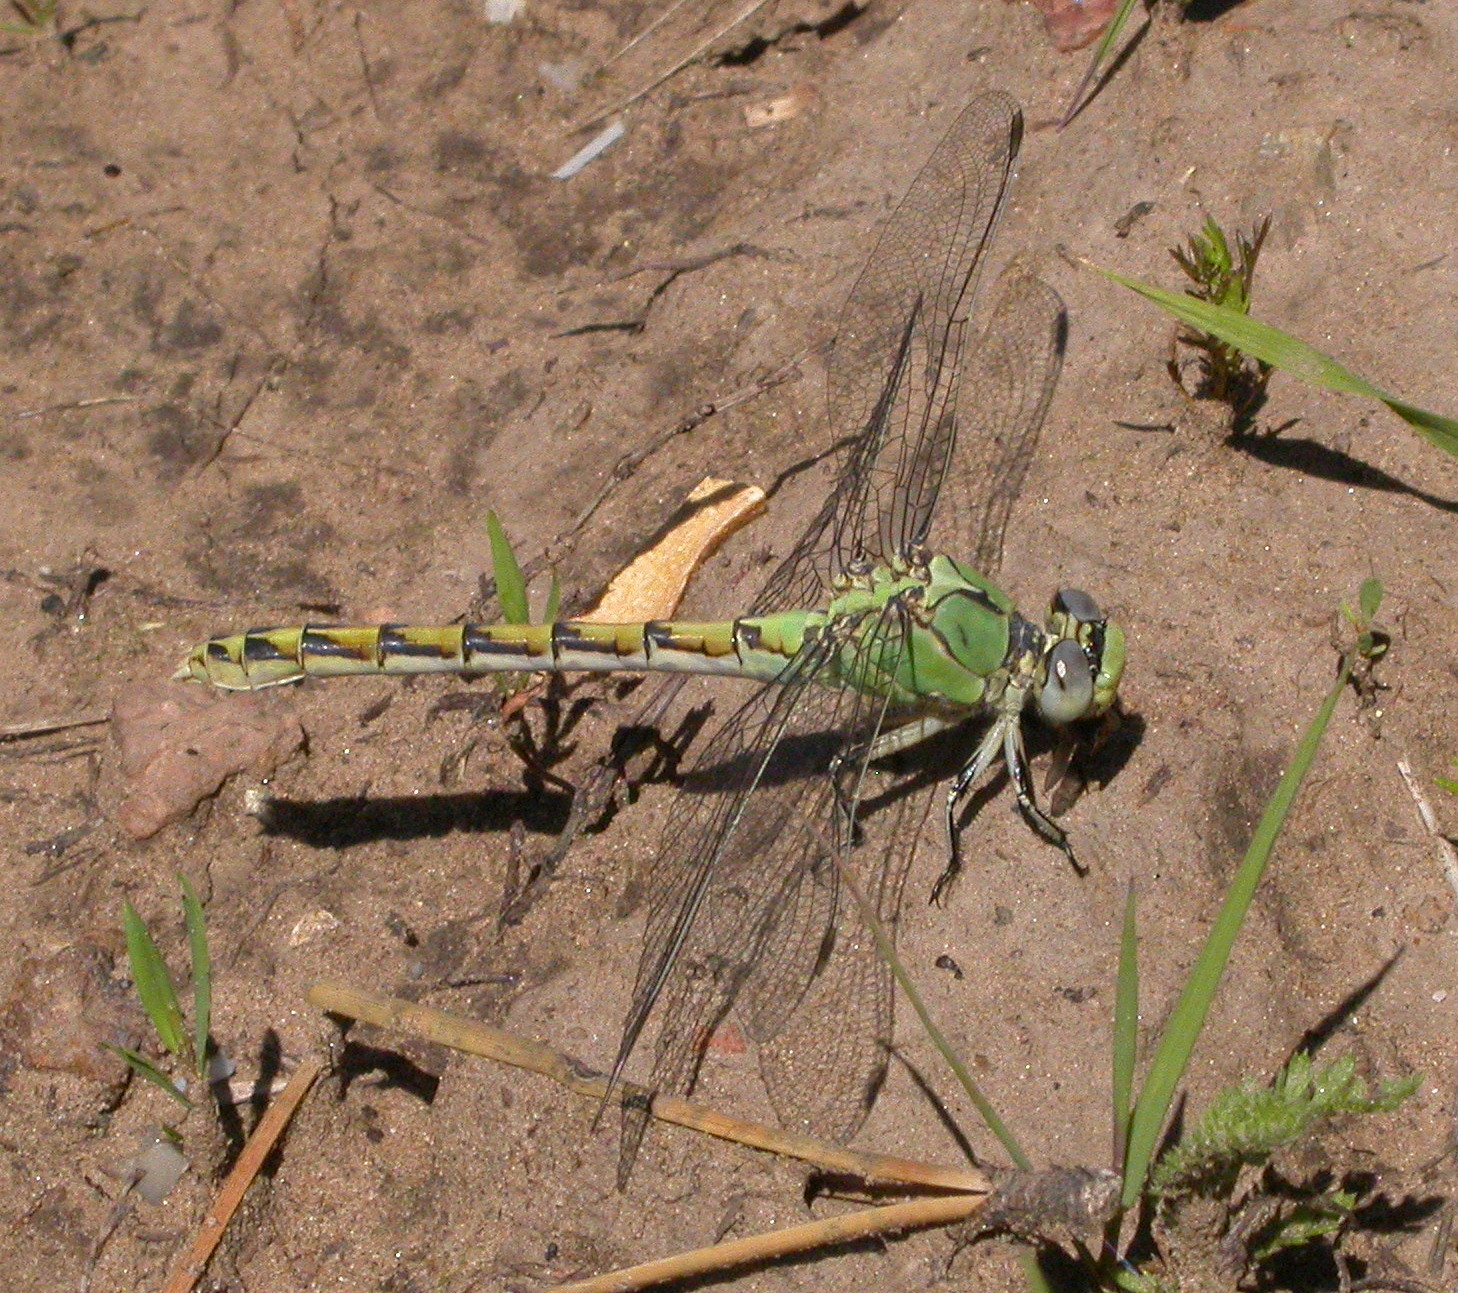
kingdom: Animalia
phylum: Arthropoda
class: Insecta
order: Odonata
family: Gomphidae
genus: Ophiogomphus
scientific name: Ophiogomphus severus
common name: Pale snaketail
